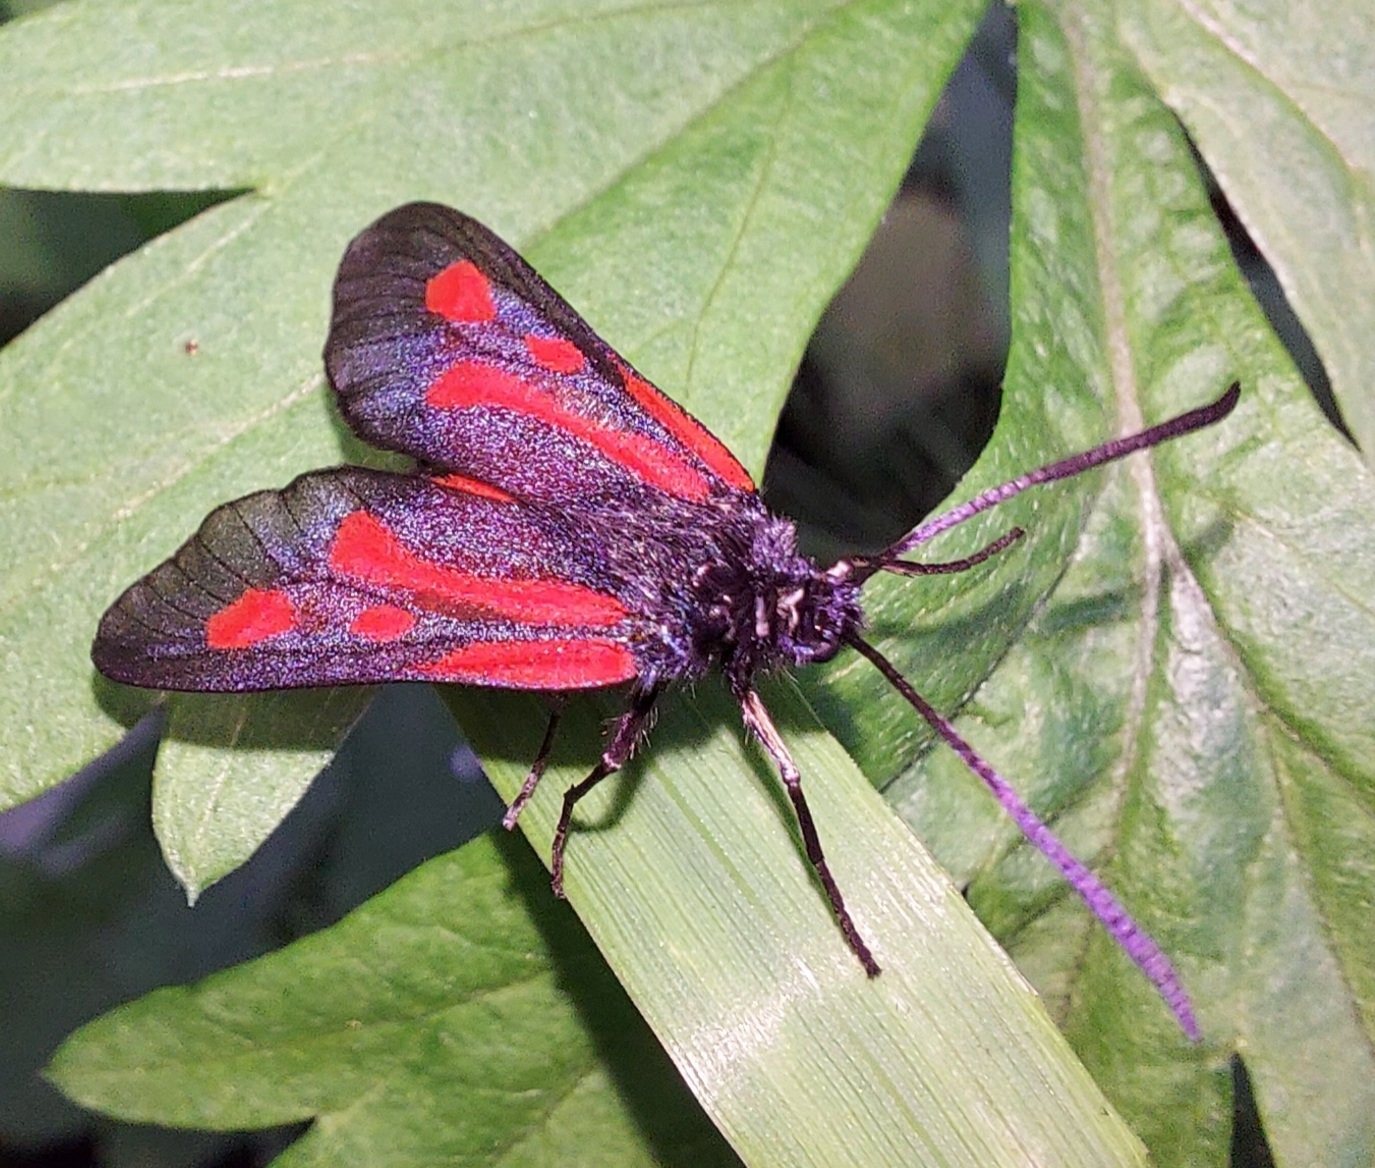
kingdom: Animalia
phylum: Arthropoda
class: Insecta
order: Lepidoptera
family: Zygaenidae
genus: Zygaena
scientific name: Zygaena osterodensis
